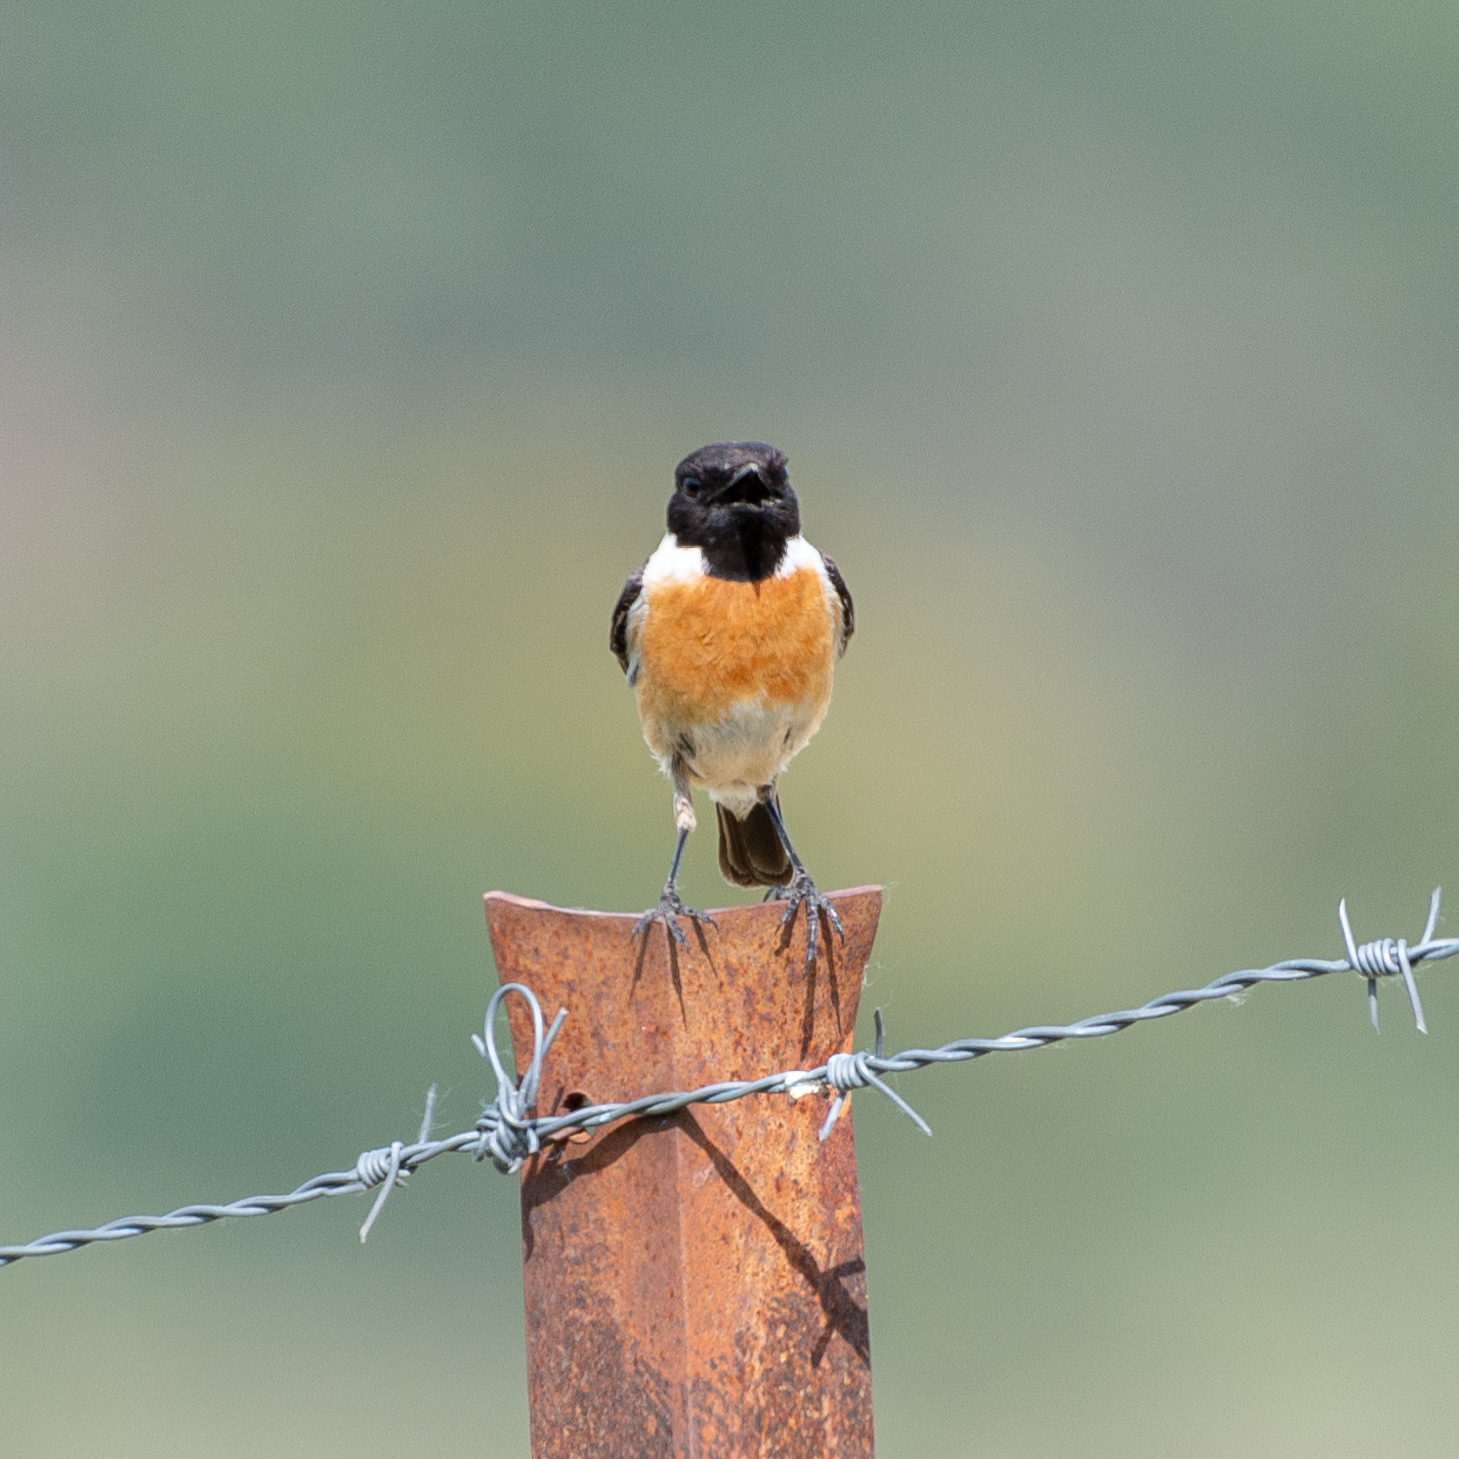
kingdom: Animalia
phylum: Chordata
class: Aves
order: Passeriformes
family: Muscicapidae
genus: Saxicola
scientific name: Saxicola rubicola
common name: European stonechat
